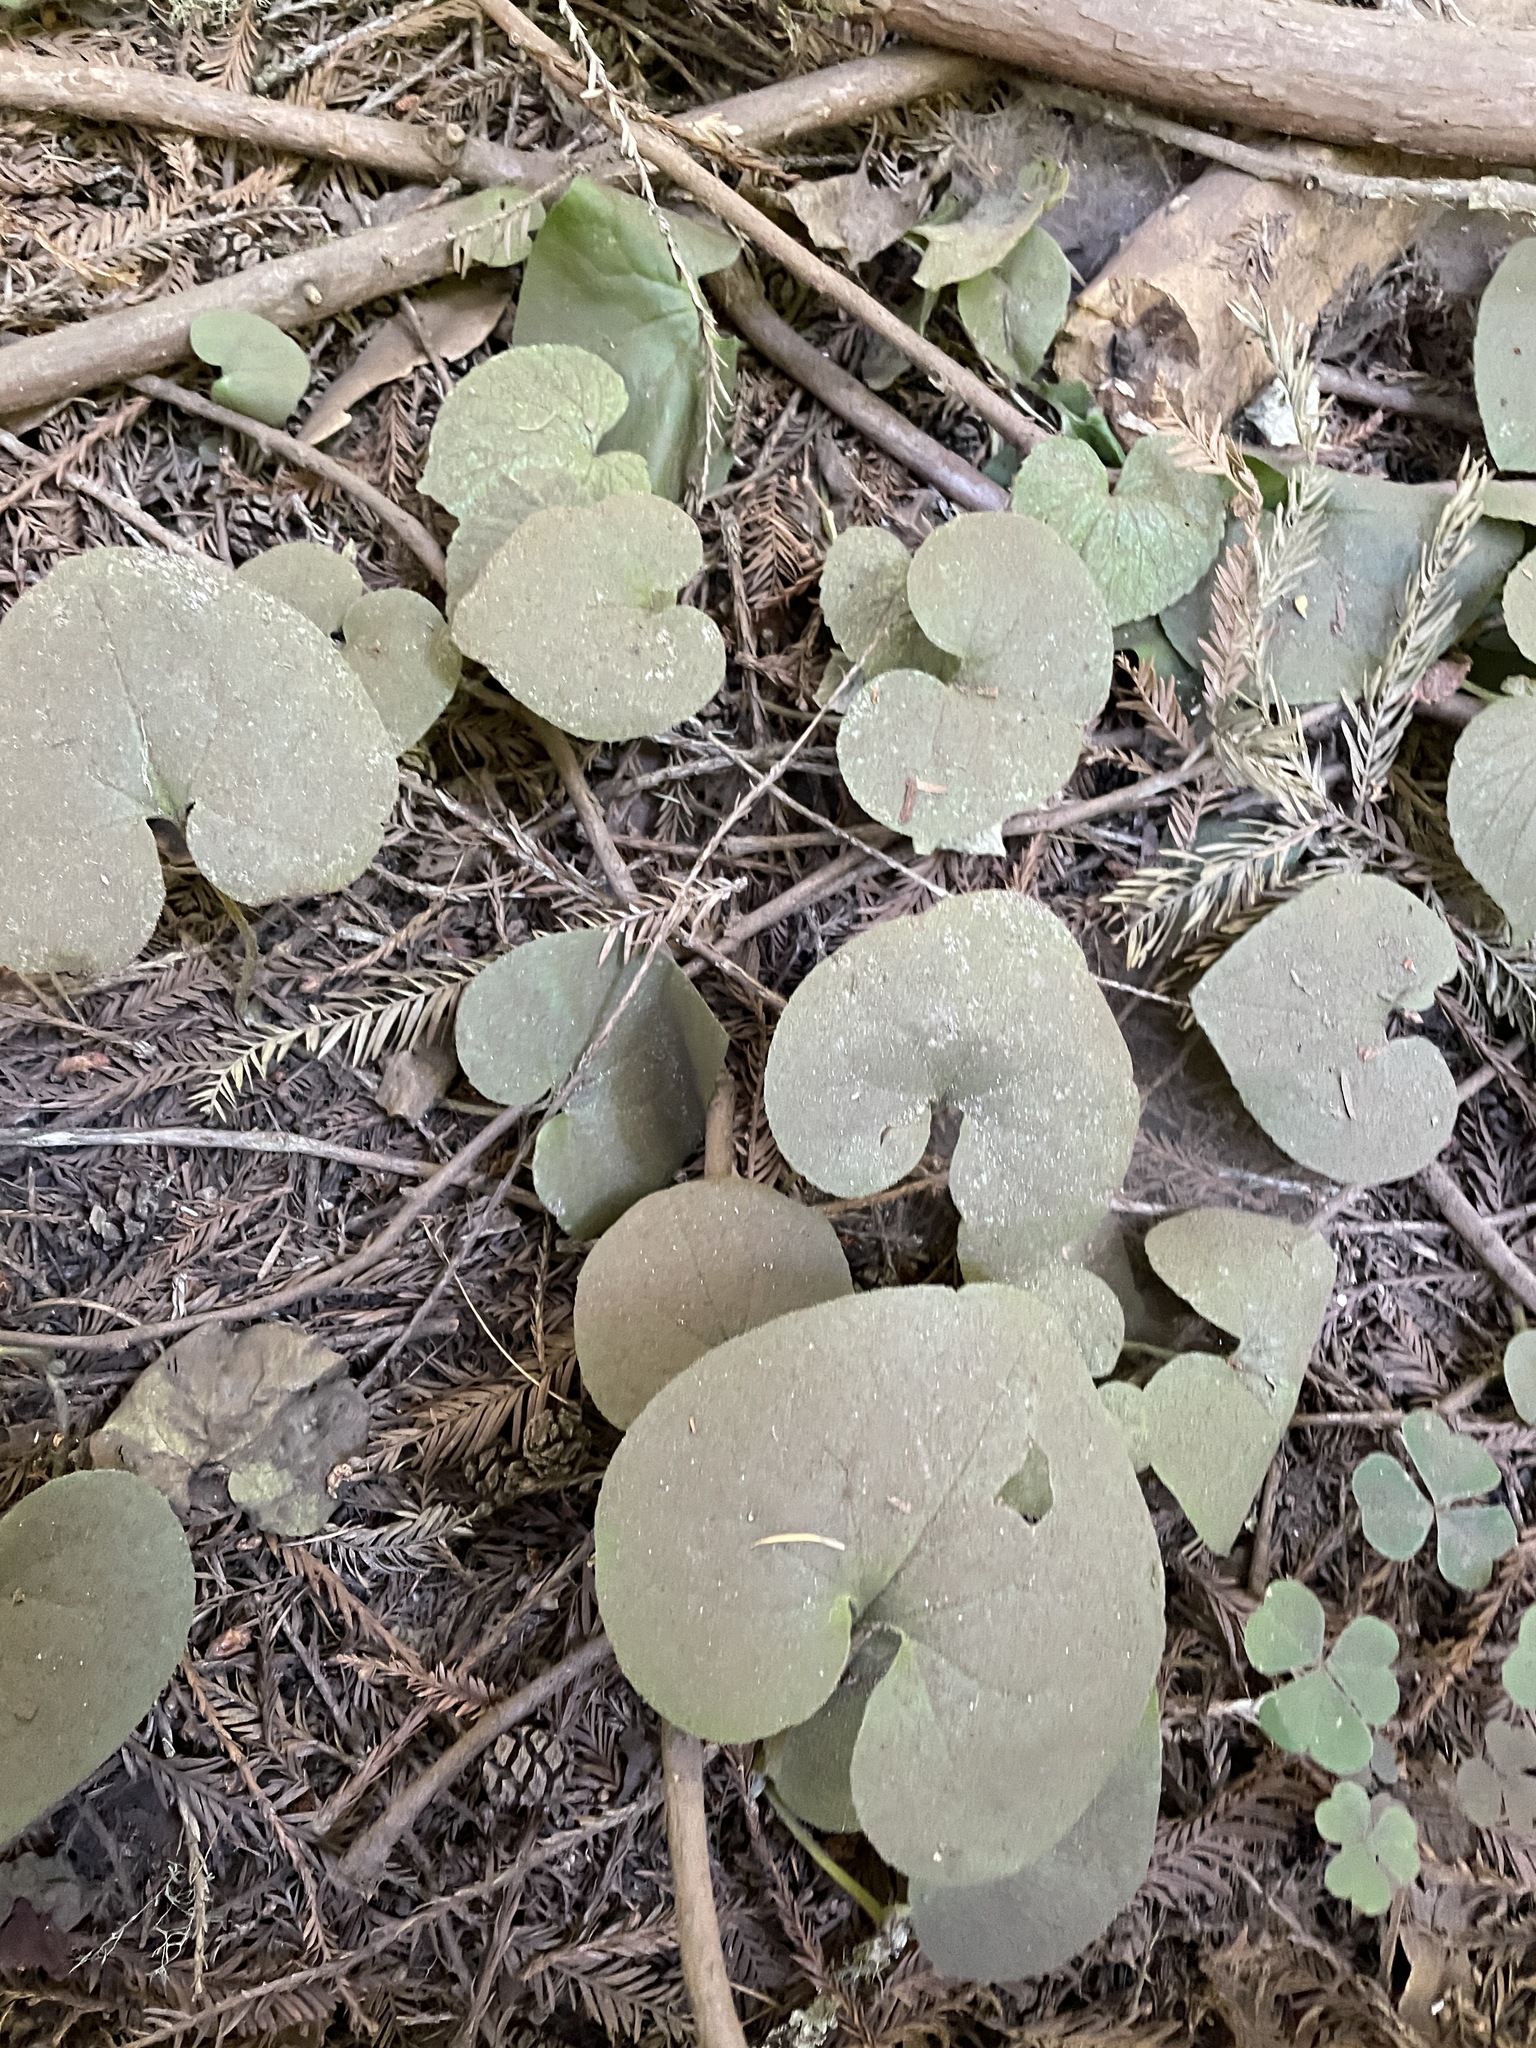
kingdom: Plantae
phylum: Tracheophyta
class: Magnoliopsida
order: Piperales
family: Aristolochiaceae
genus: Asarum
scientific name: Asarum caudatum
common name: Wild ginger
